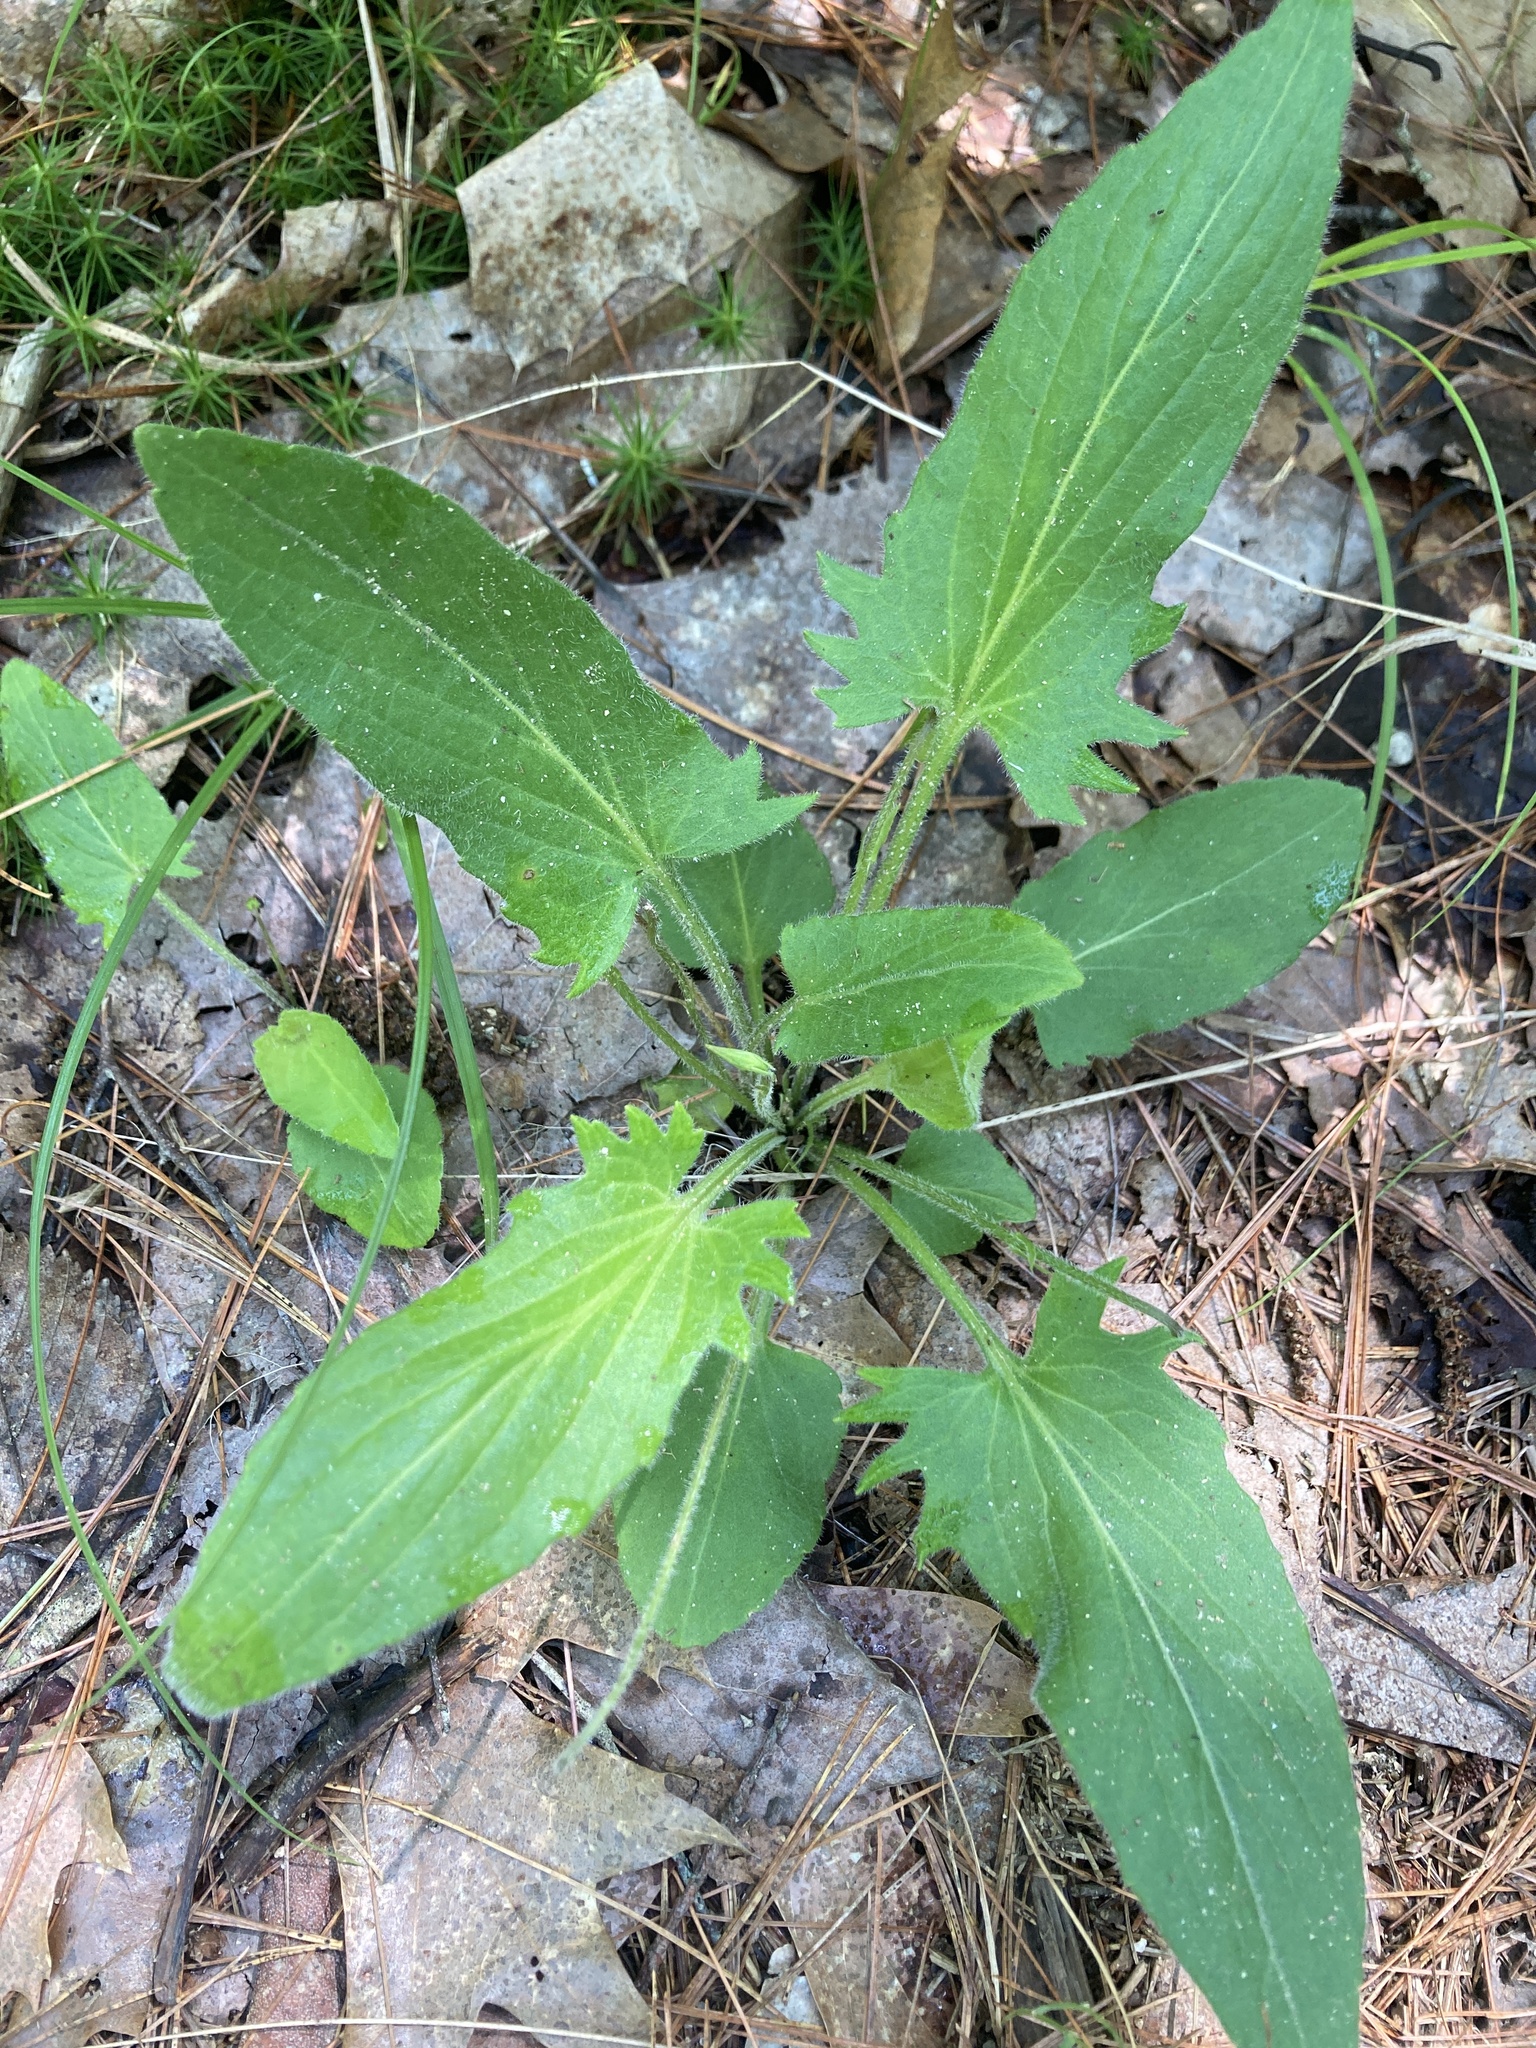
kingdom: Plantae
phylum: Tracheophyta
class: Magnoliopsida
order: Malpighiales
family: Violaceae
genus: Viola
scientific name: Viola sagittata
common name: Arrowhead violet
